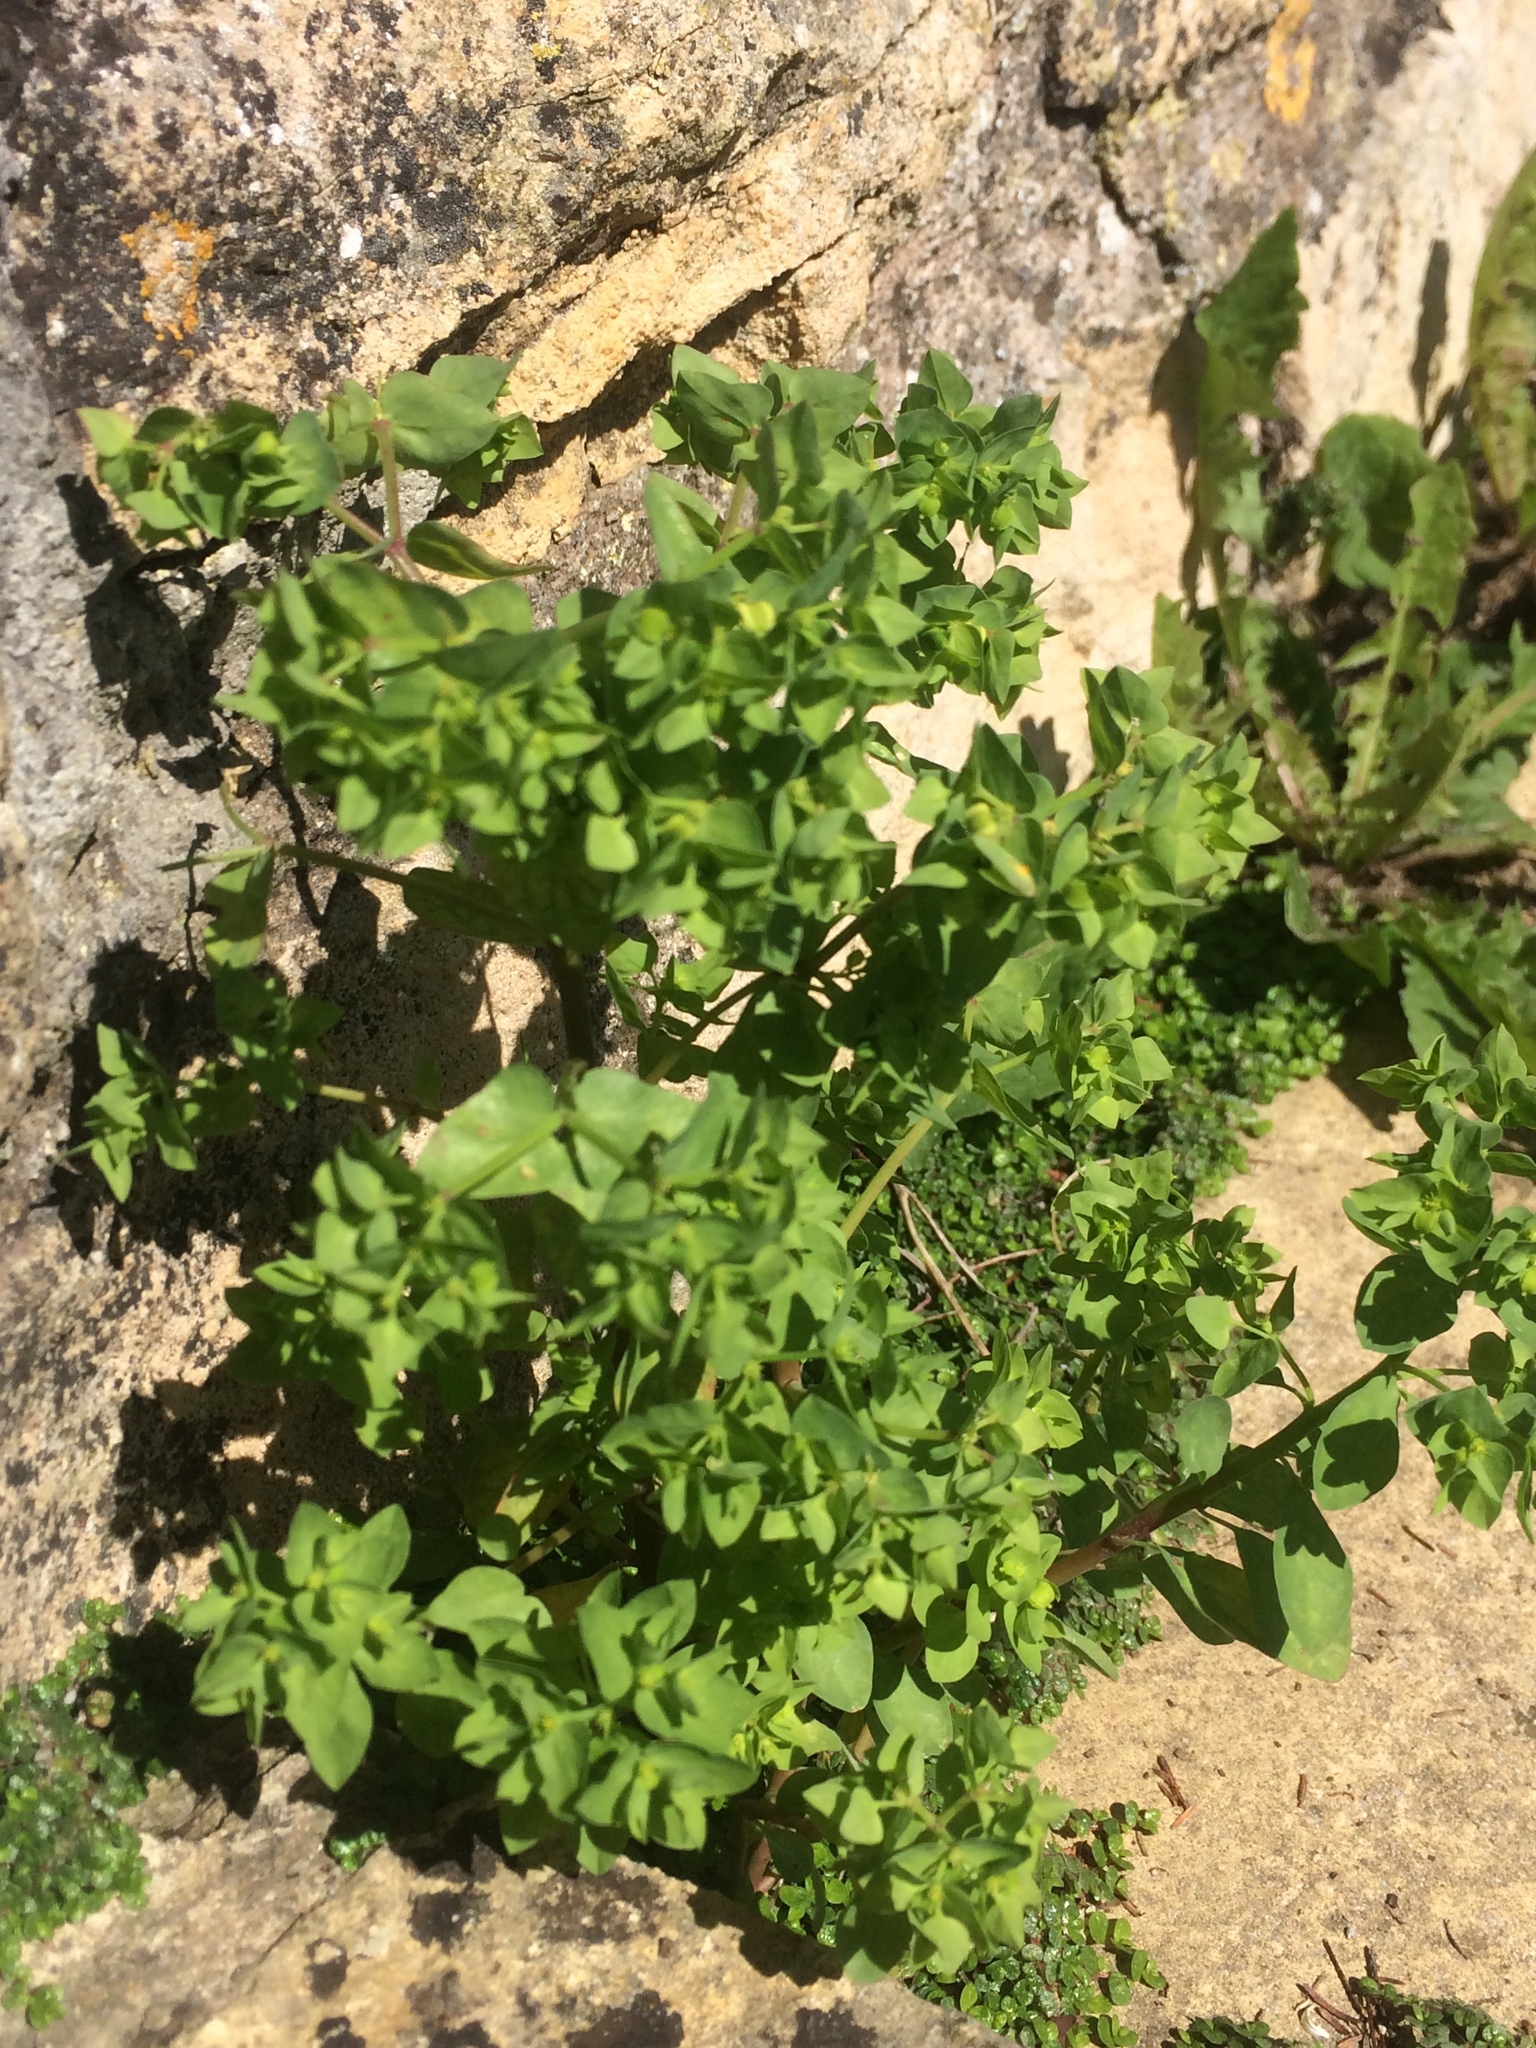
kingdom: Plantae
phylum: Tracheophyta
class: Magnoliopsida
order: Malpighiales
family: Euphorbiaceae
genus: Euphorbia
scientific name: Euphorbia peplus
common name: Petty spurge
